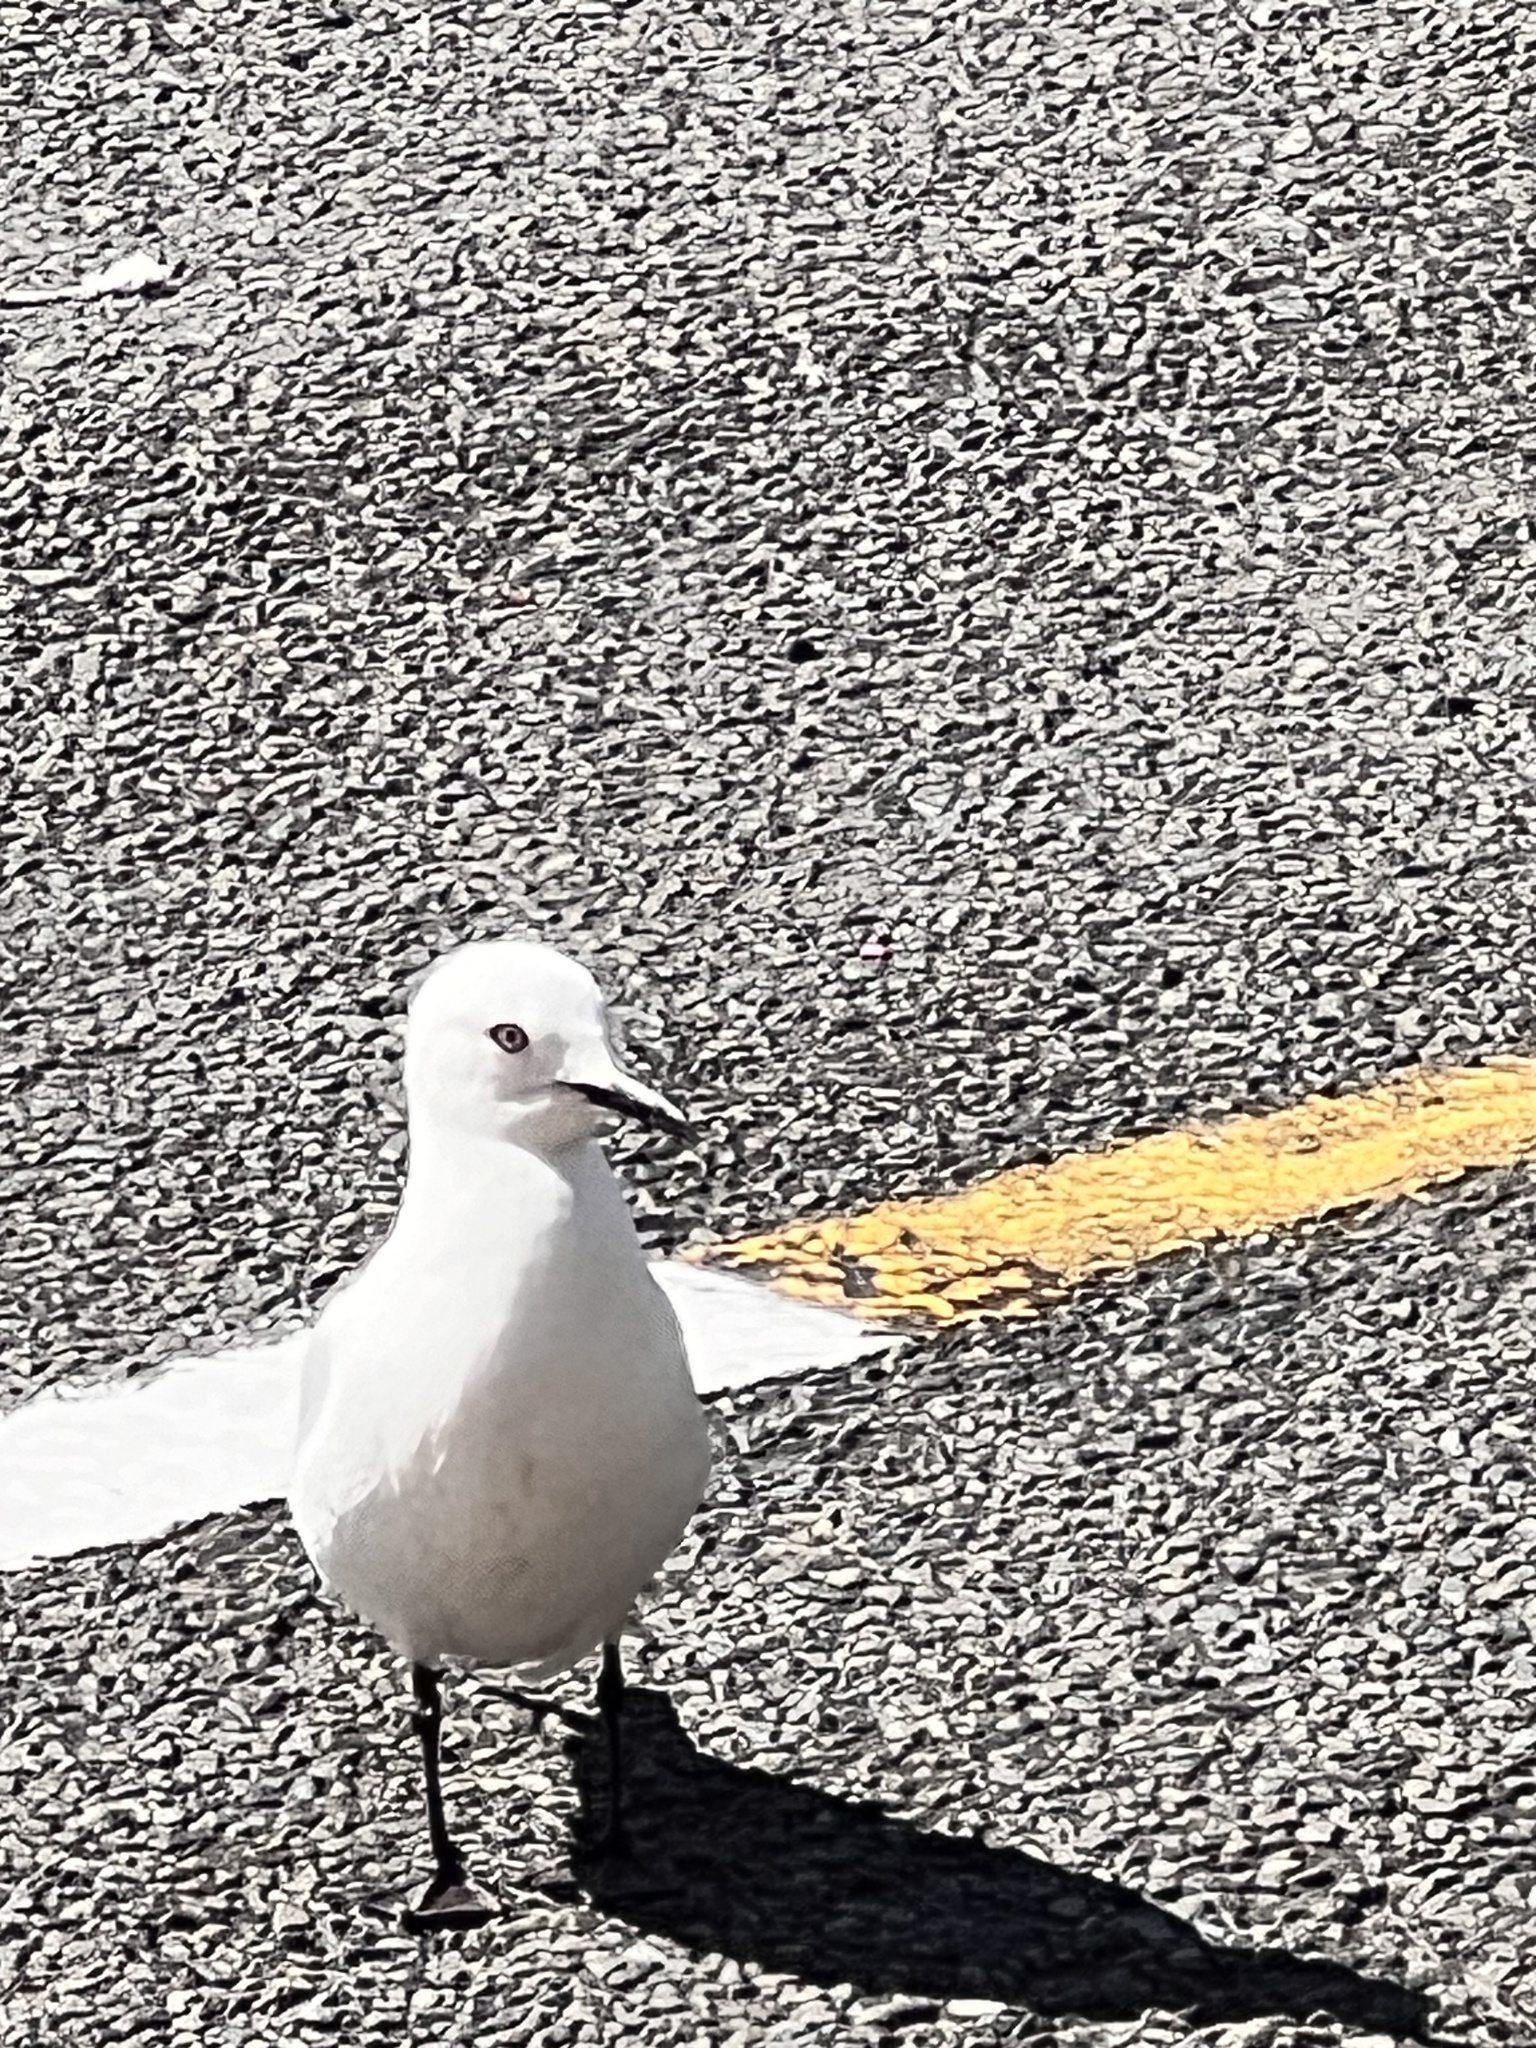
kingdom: Animalia
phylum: Chordata
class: Aves
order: Charadriiformes
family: Laridae
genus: Chroicocephalus
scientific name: Chroicocephalus bulleri
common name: Black-billed gull
